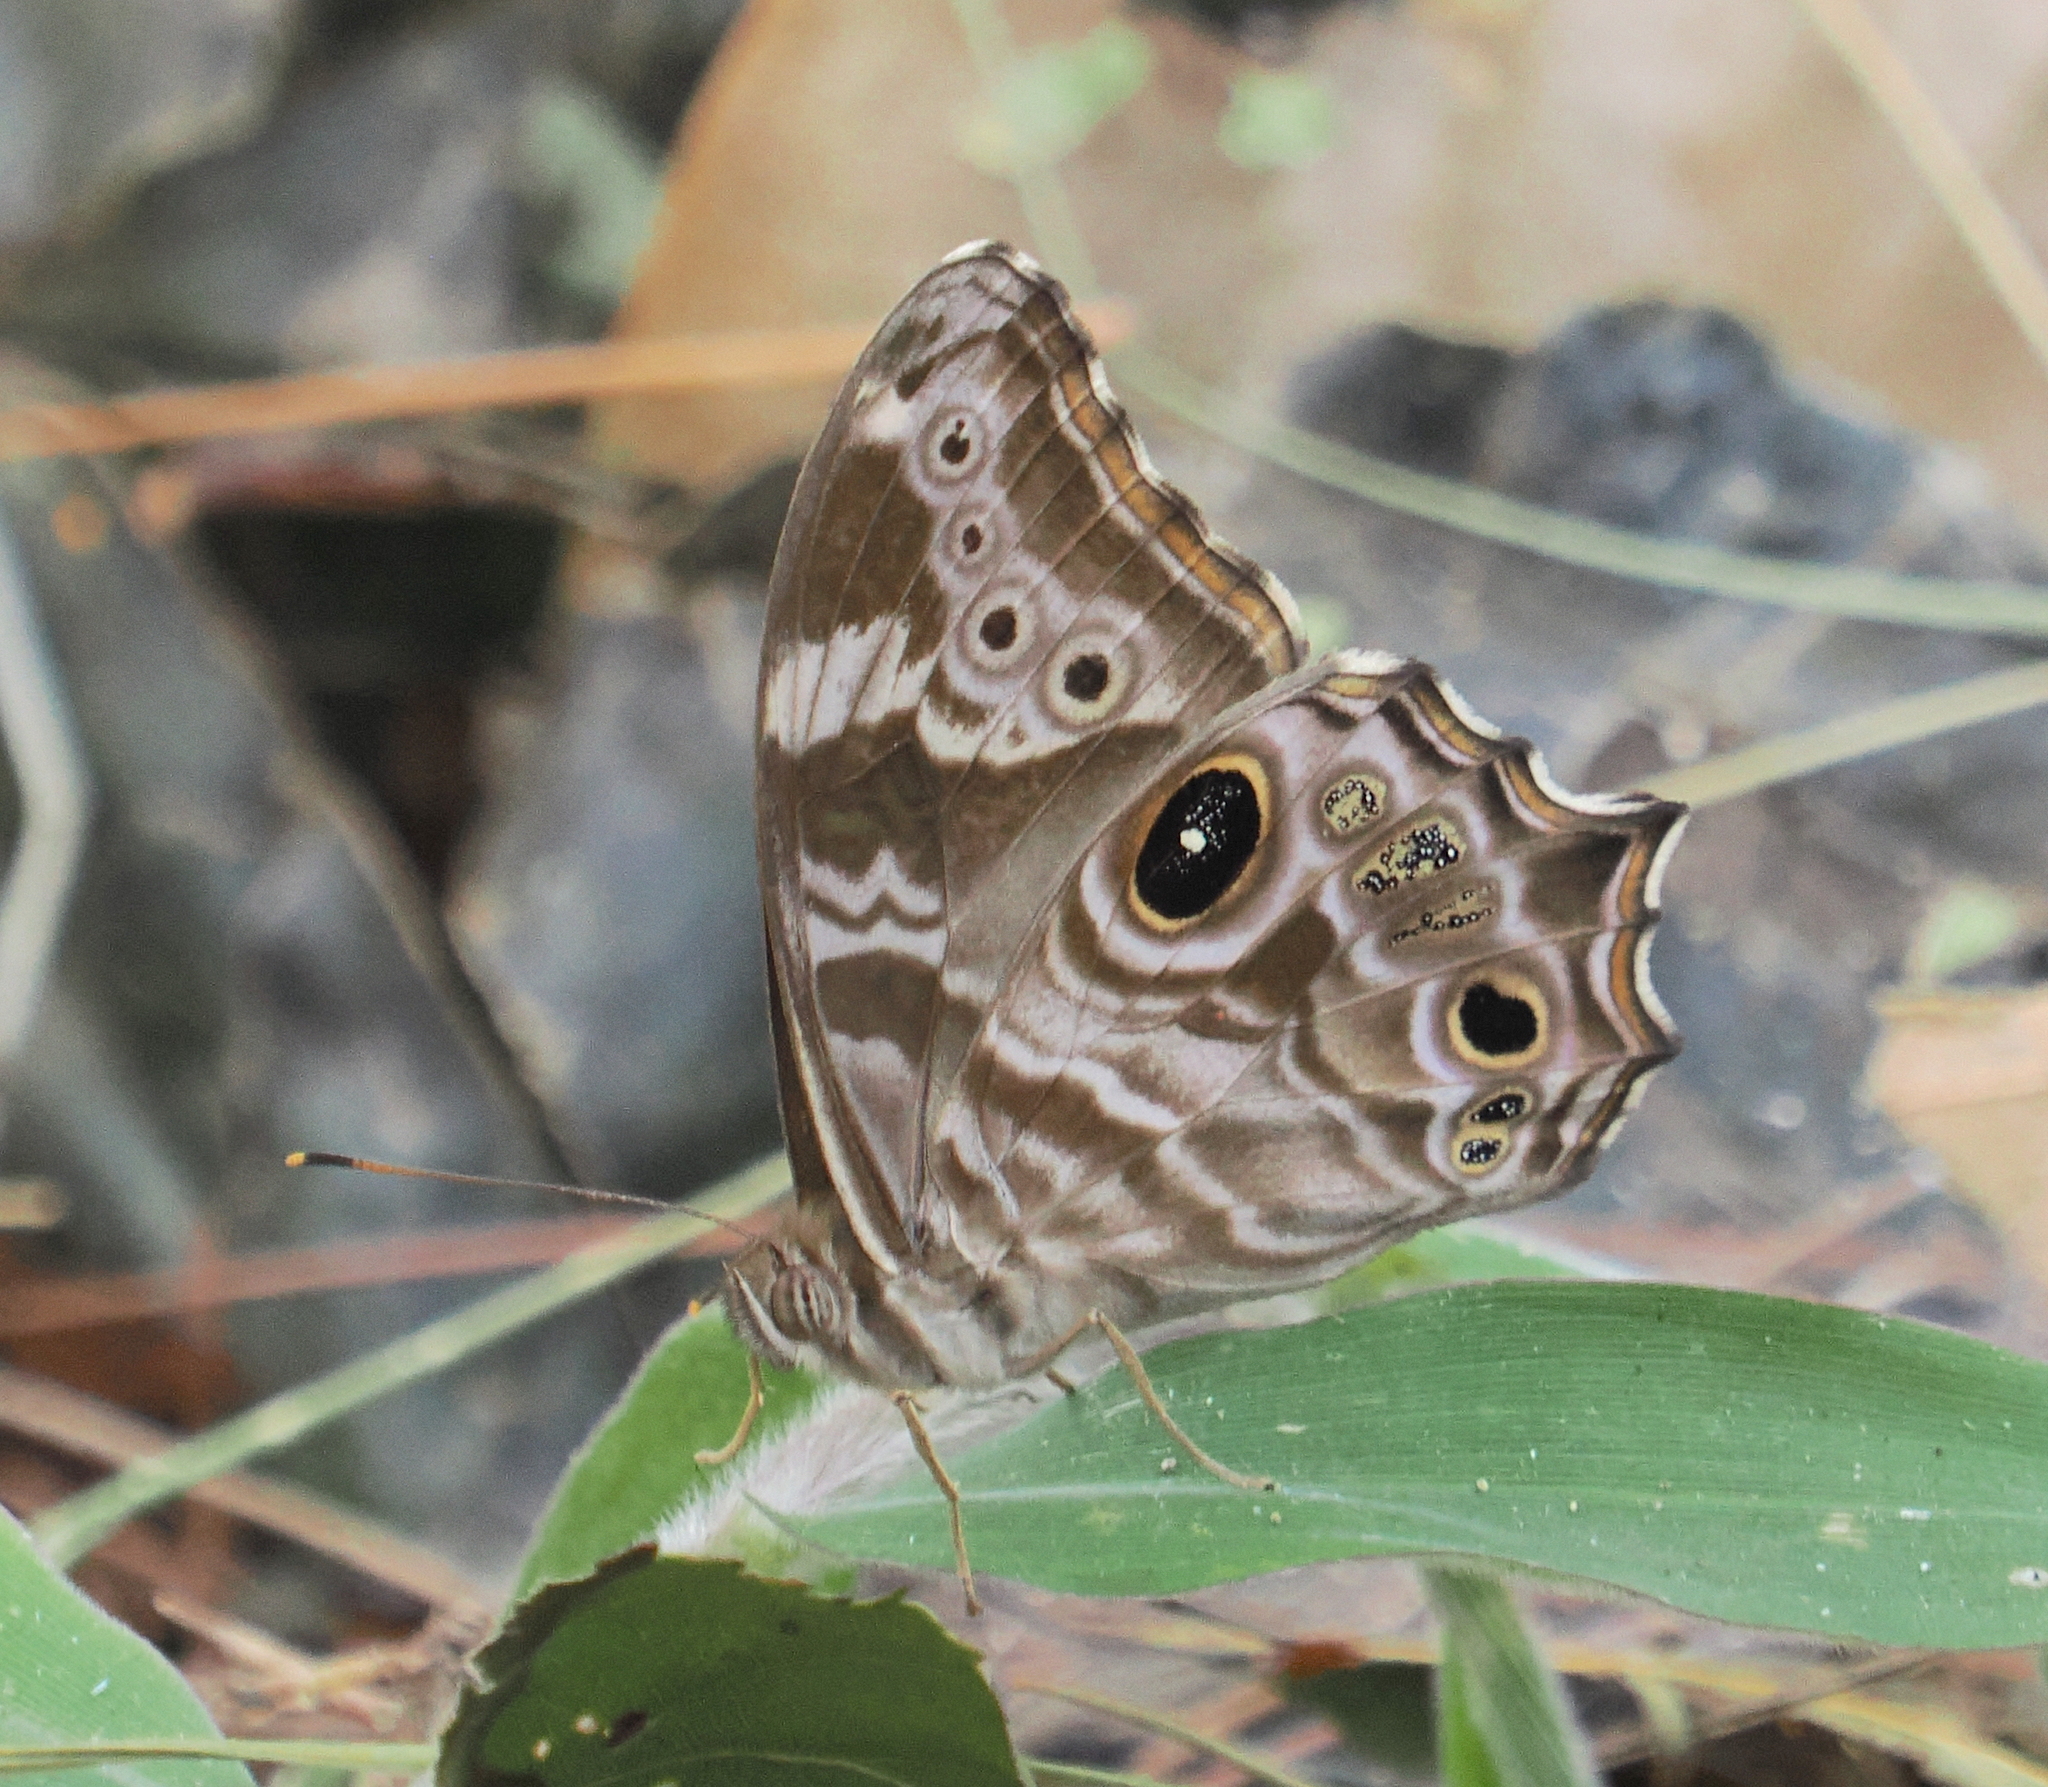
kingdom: Animalia
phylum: Arthropoda
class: Insecta
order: Lepidoptera
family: Nymphalidae
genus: Lethe
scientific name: Lethe rohria
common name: Common treebrown
